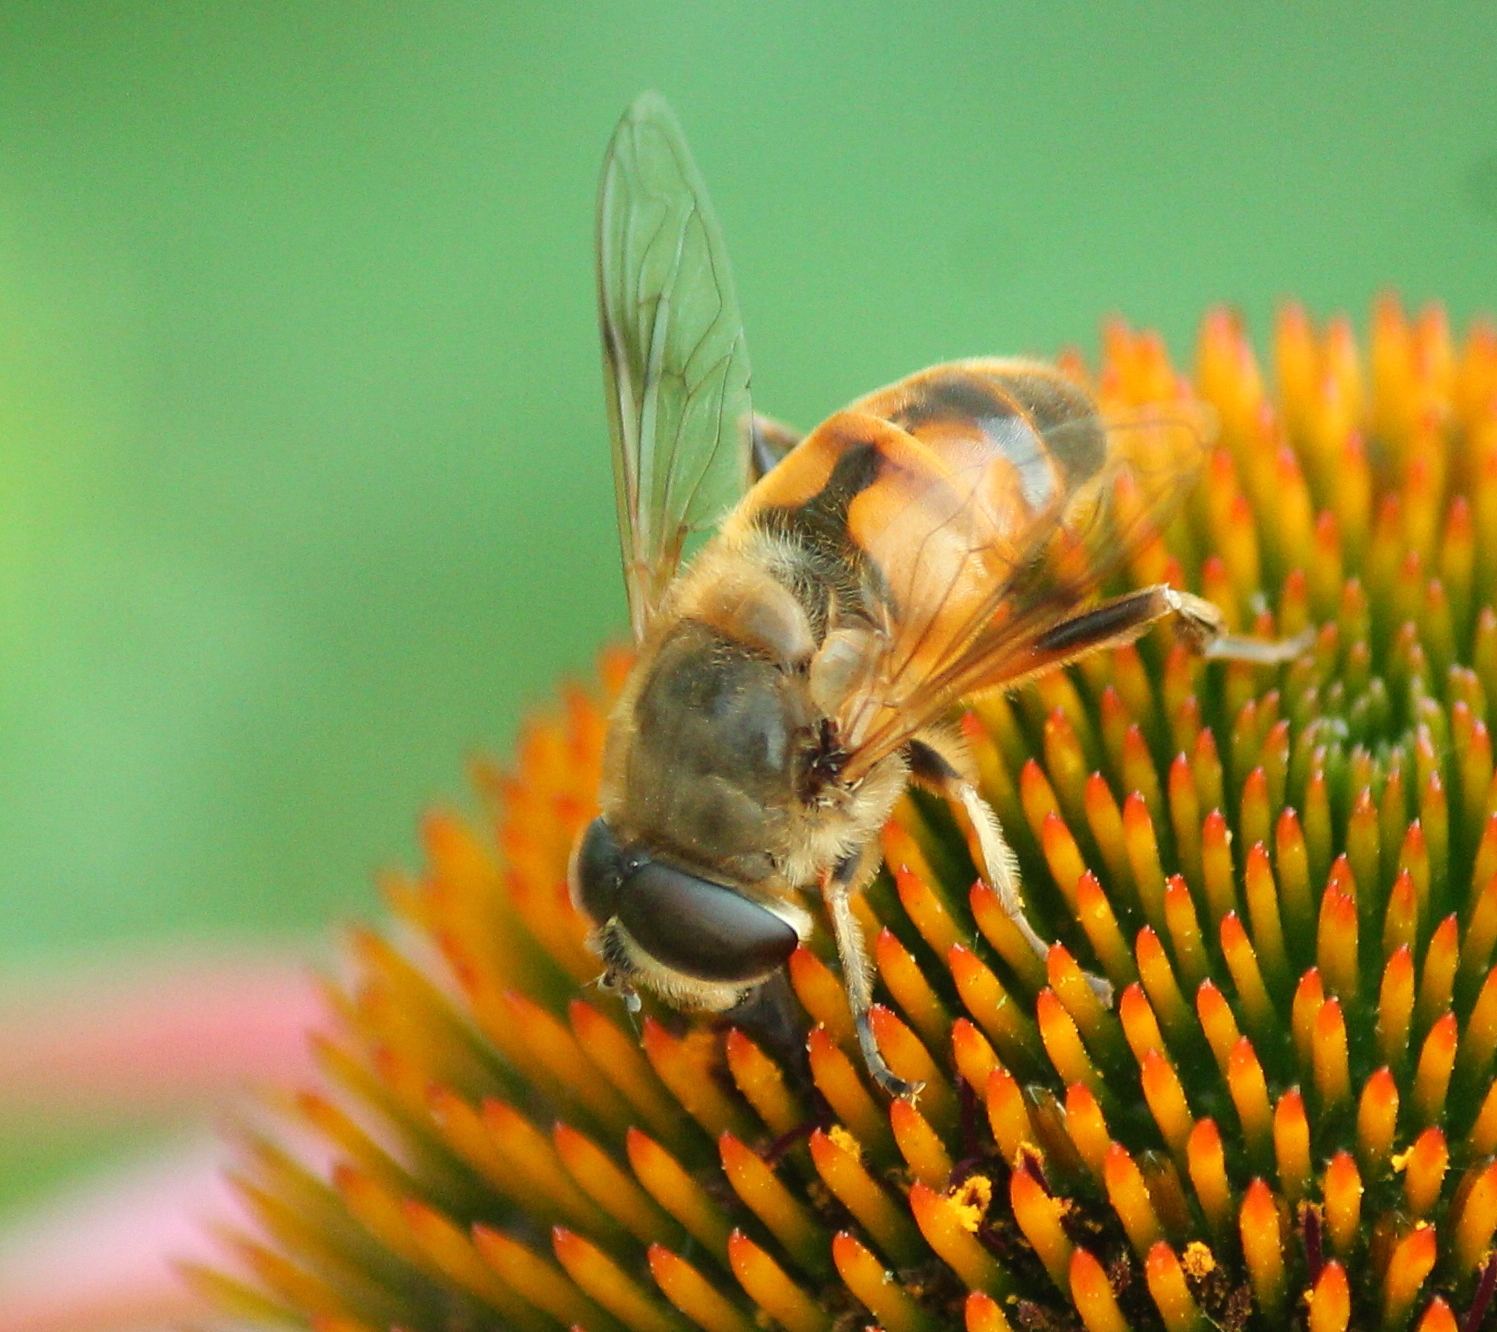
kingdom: Animalia
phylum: Arthropoda
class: Insecta
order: Diptera
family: Syrphidae
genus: Eristalis
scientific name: Eristalis tenax
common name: Drone fly
